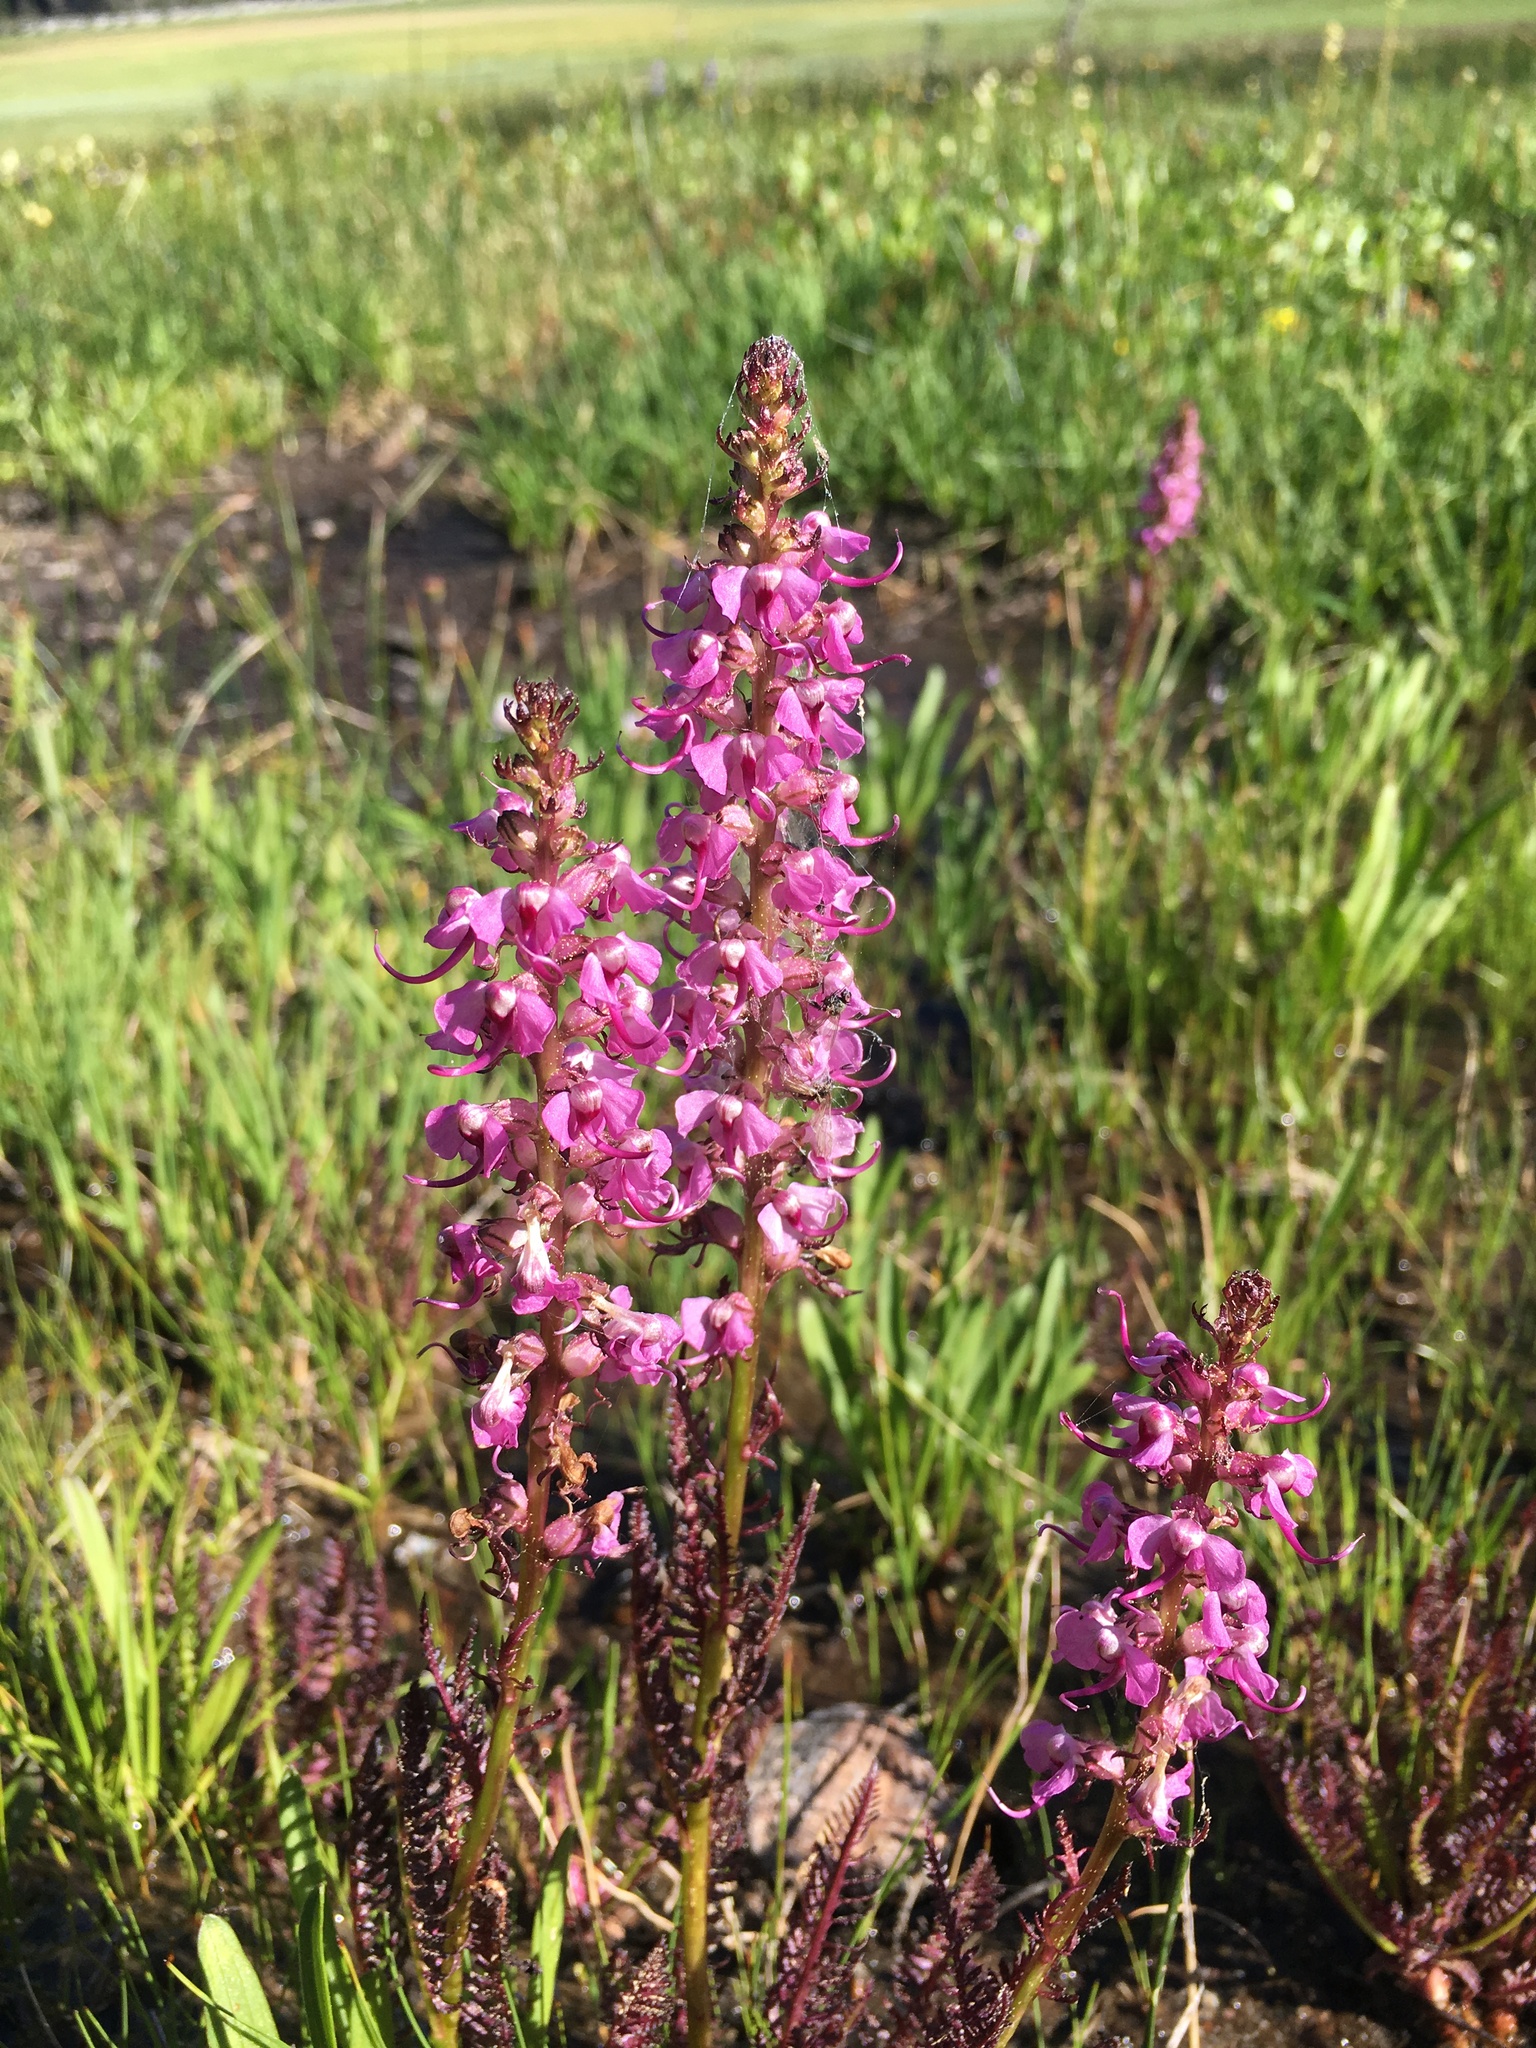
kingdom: Plantae
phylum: Tracheophyta
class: Magnoliopsida
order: Lamiales
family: Orobanchaceae
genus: Pedicularis
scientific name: Pedicularis groenlandica
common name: Elephant's-head
